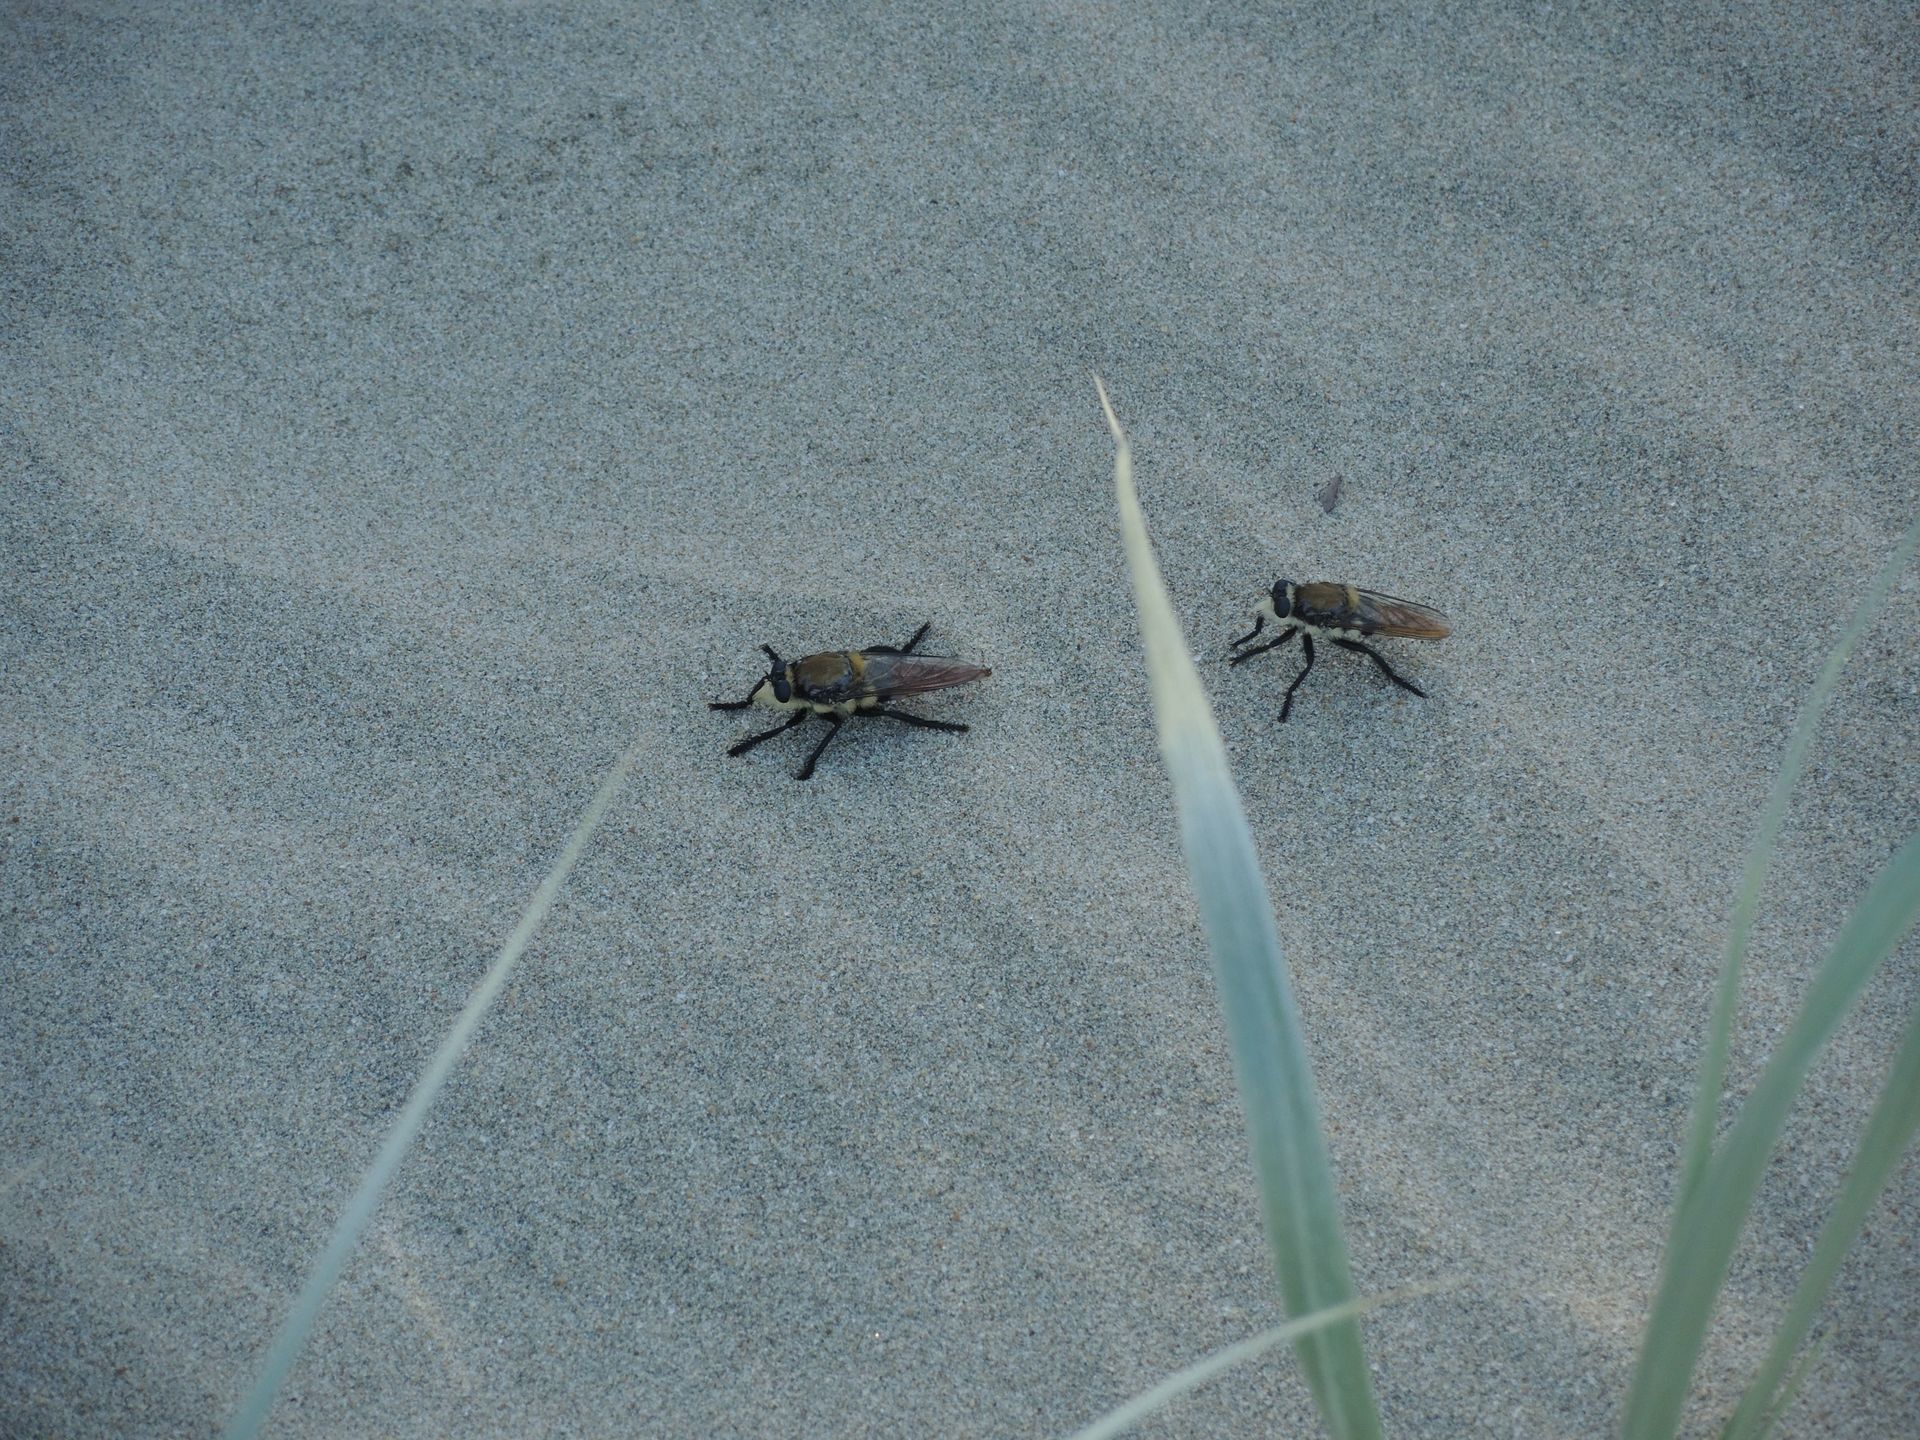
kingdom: Animalia
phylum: Arthropoda
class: Insecta
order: Diptera
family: Asilidae
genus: Eccritosia
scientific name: Eccritosia rubriventris
